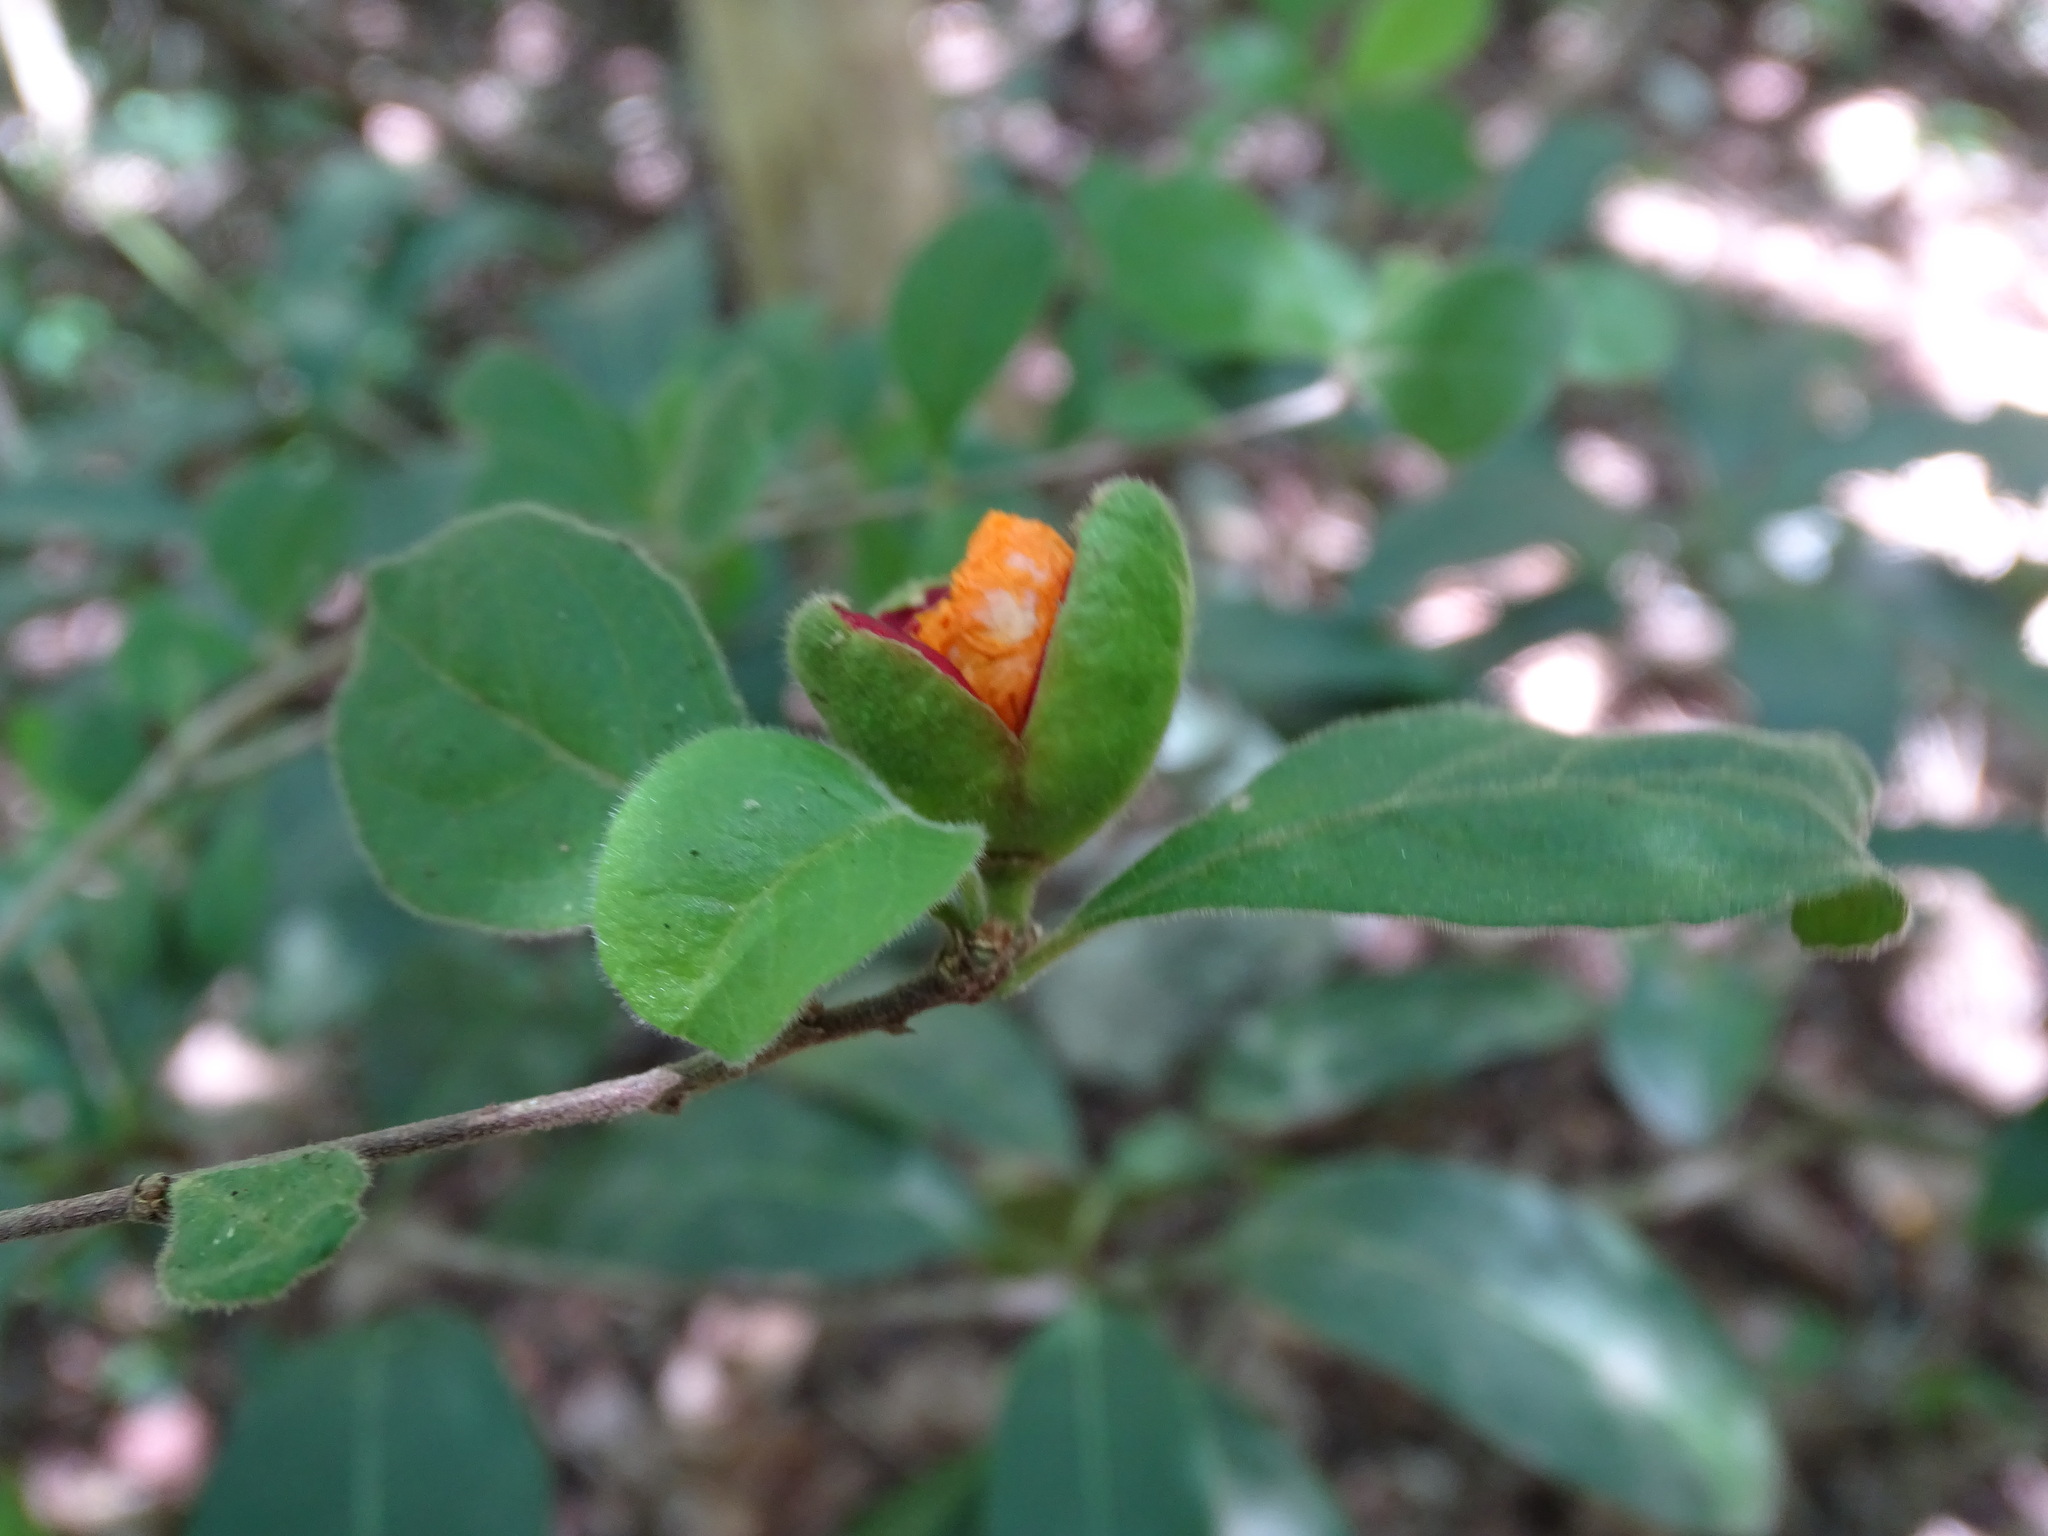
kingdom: Plantae
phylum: Tracheophyta
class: Magnoliopsida
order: Malpighiales
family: Salicaceae
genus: Casearia
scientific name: Casearia yucatanensis
